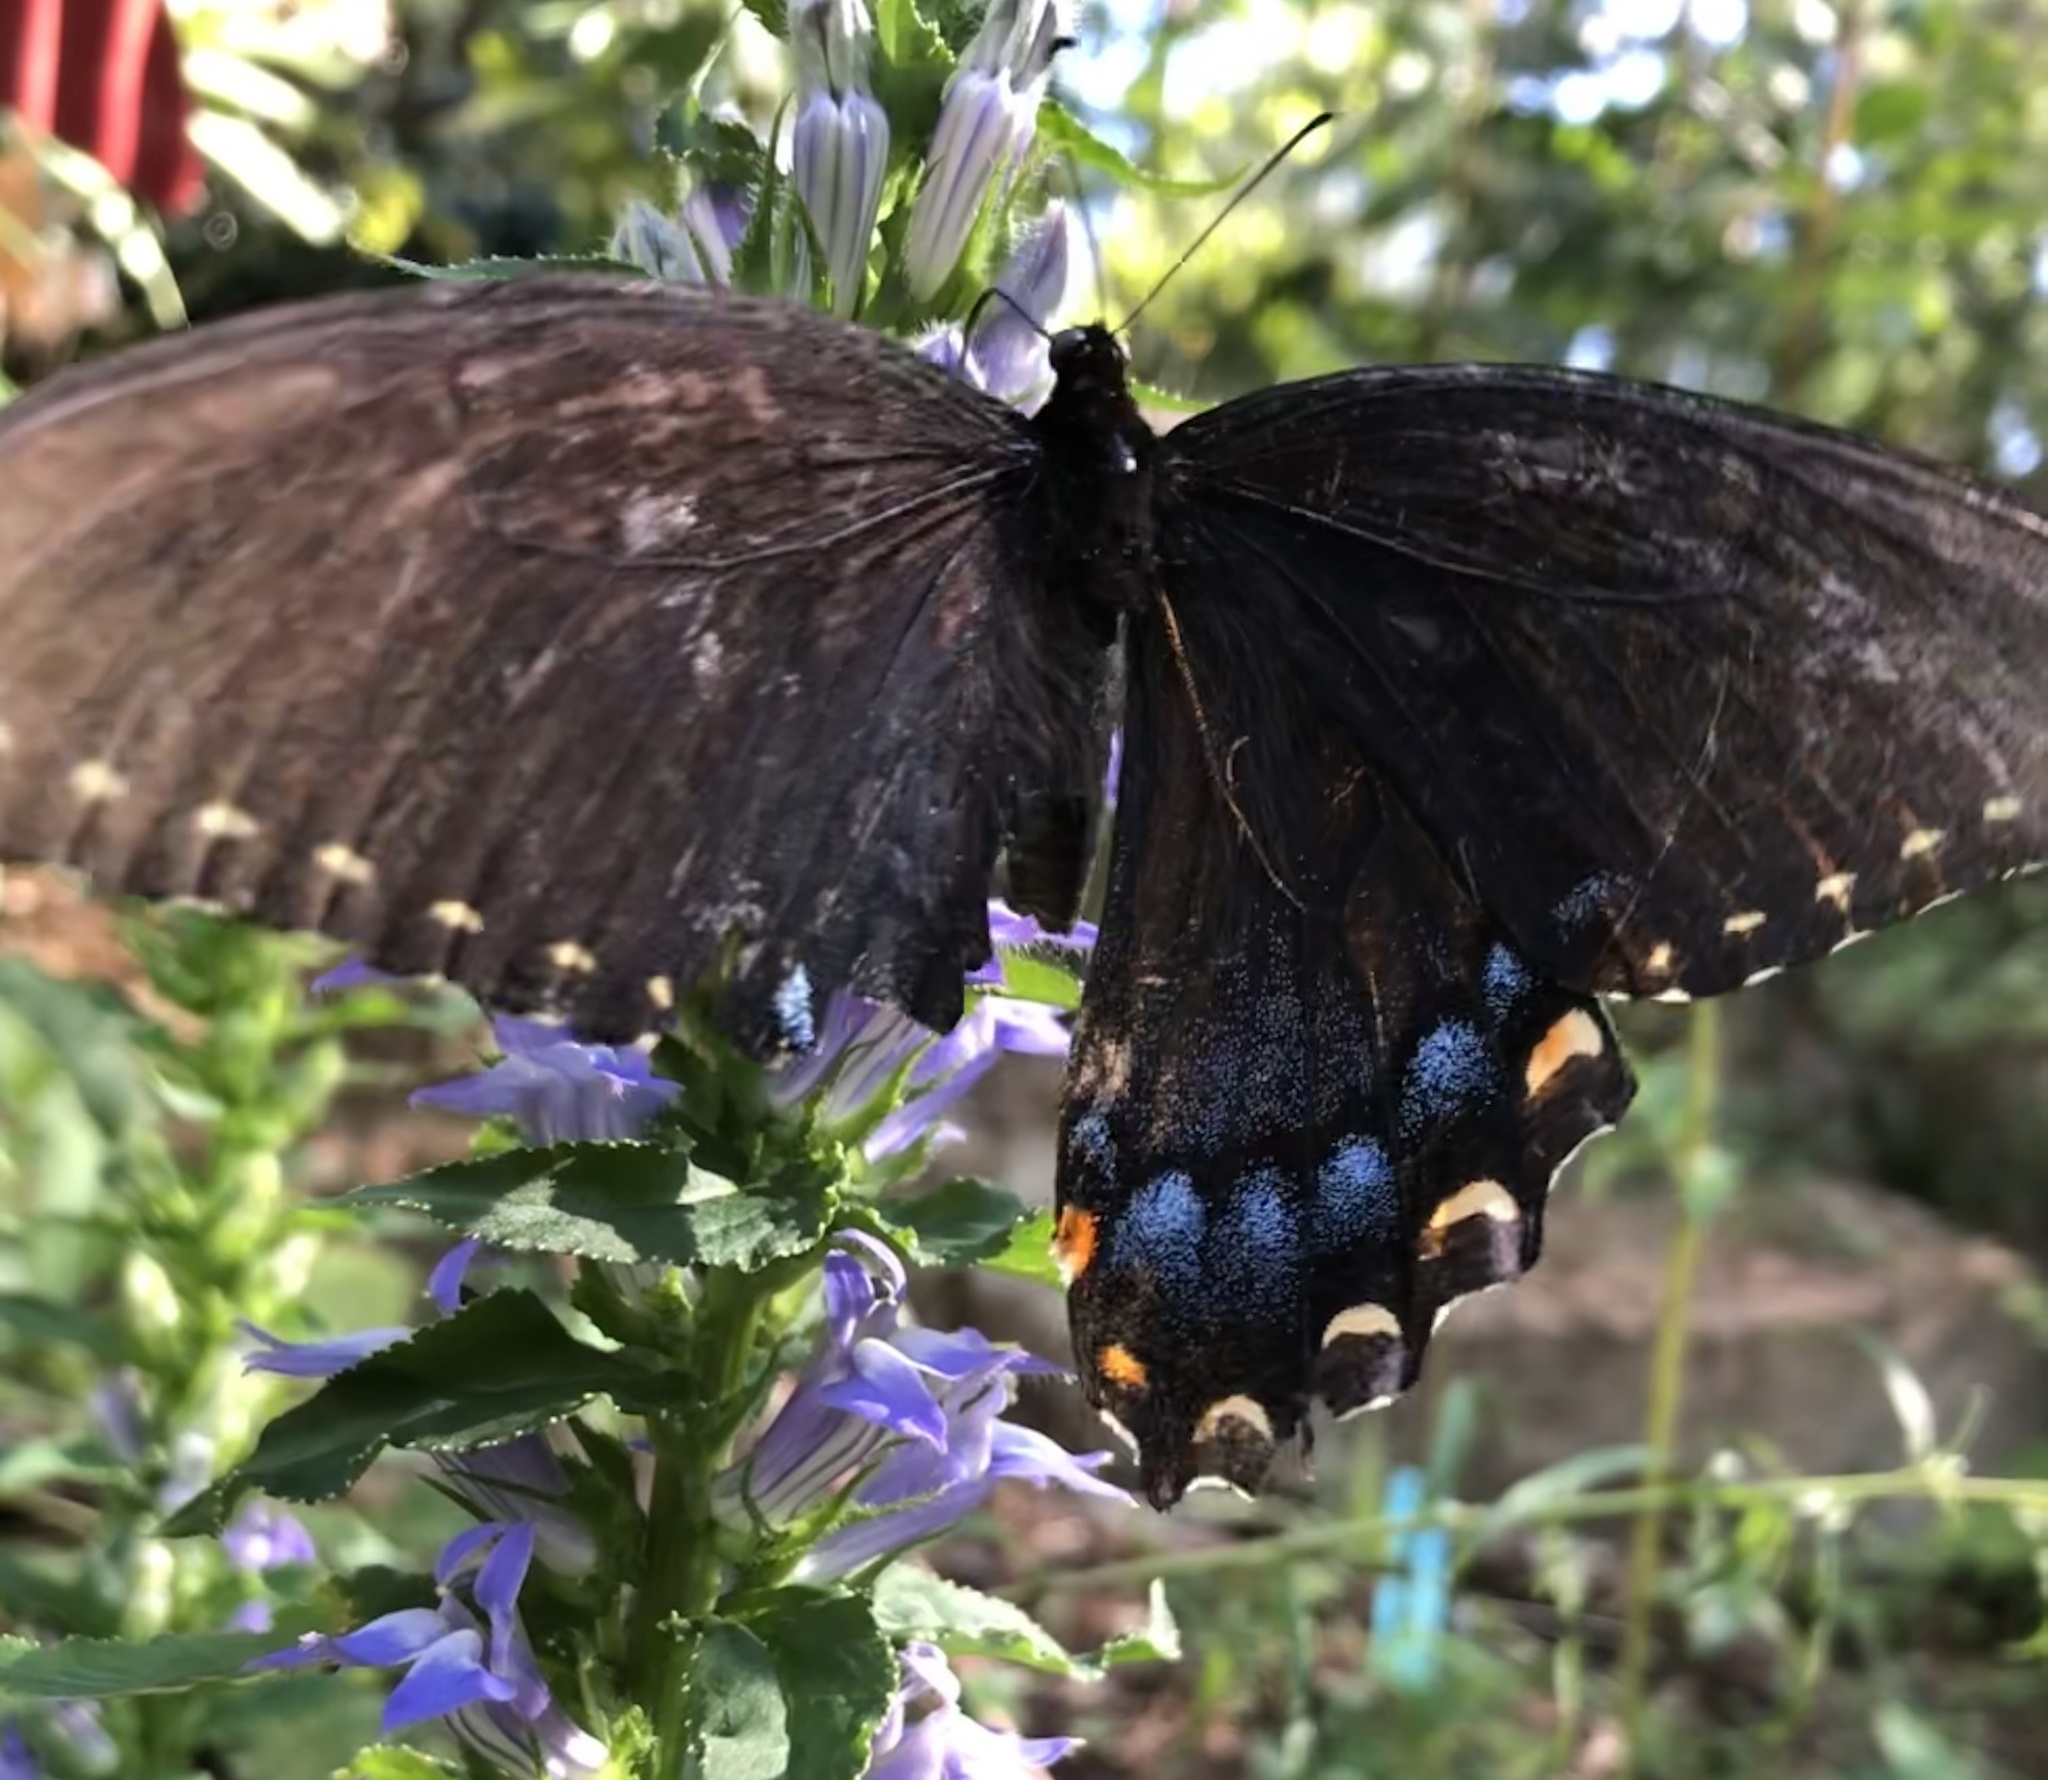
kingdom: Animalia
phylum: Arthropoda
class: Insecta
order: Lepidoptera
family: Papilionidae
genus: Papilio
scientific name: Papilio glaucus
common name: Tiger swallowtail
